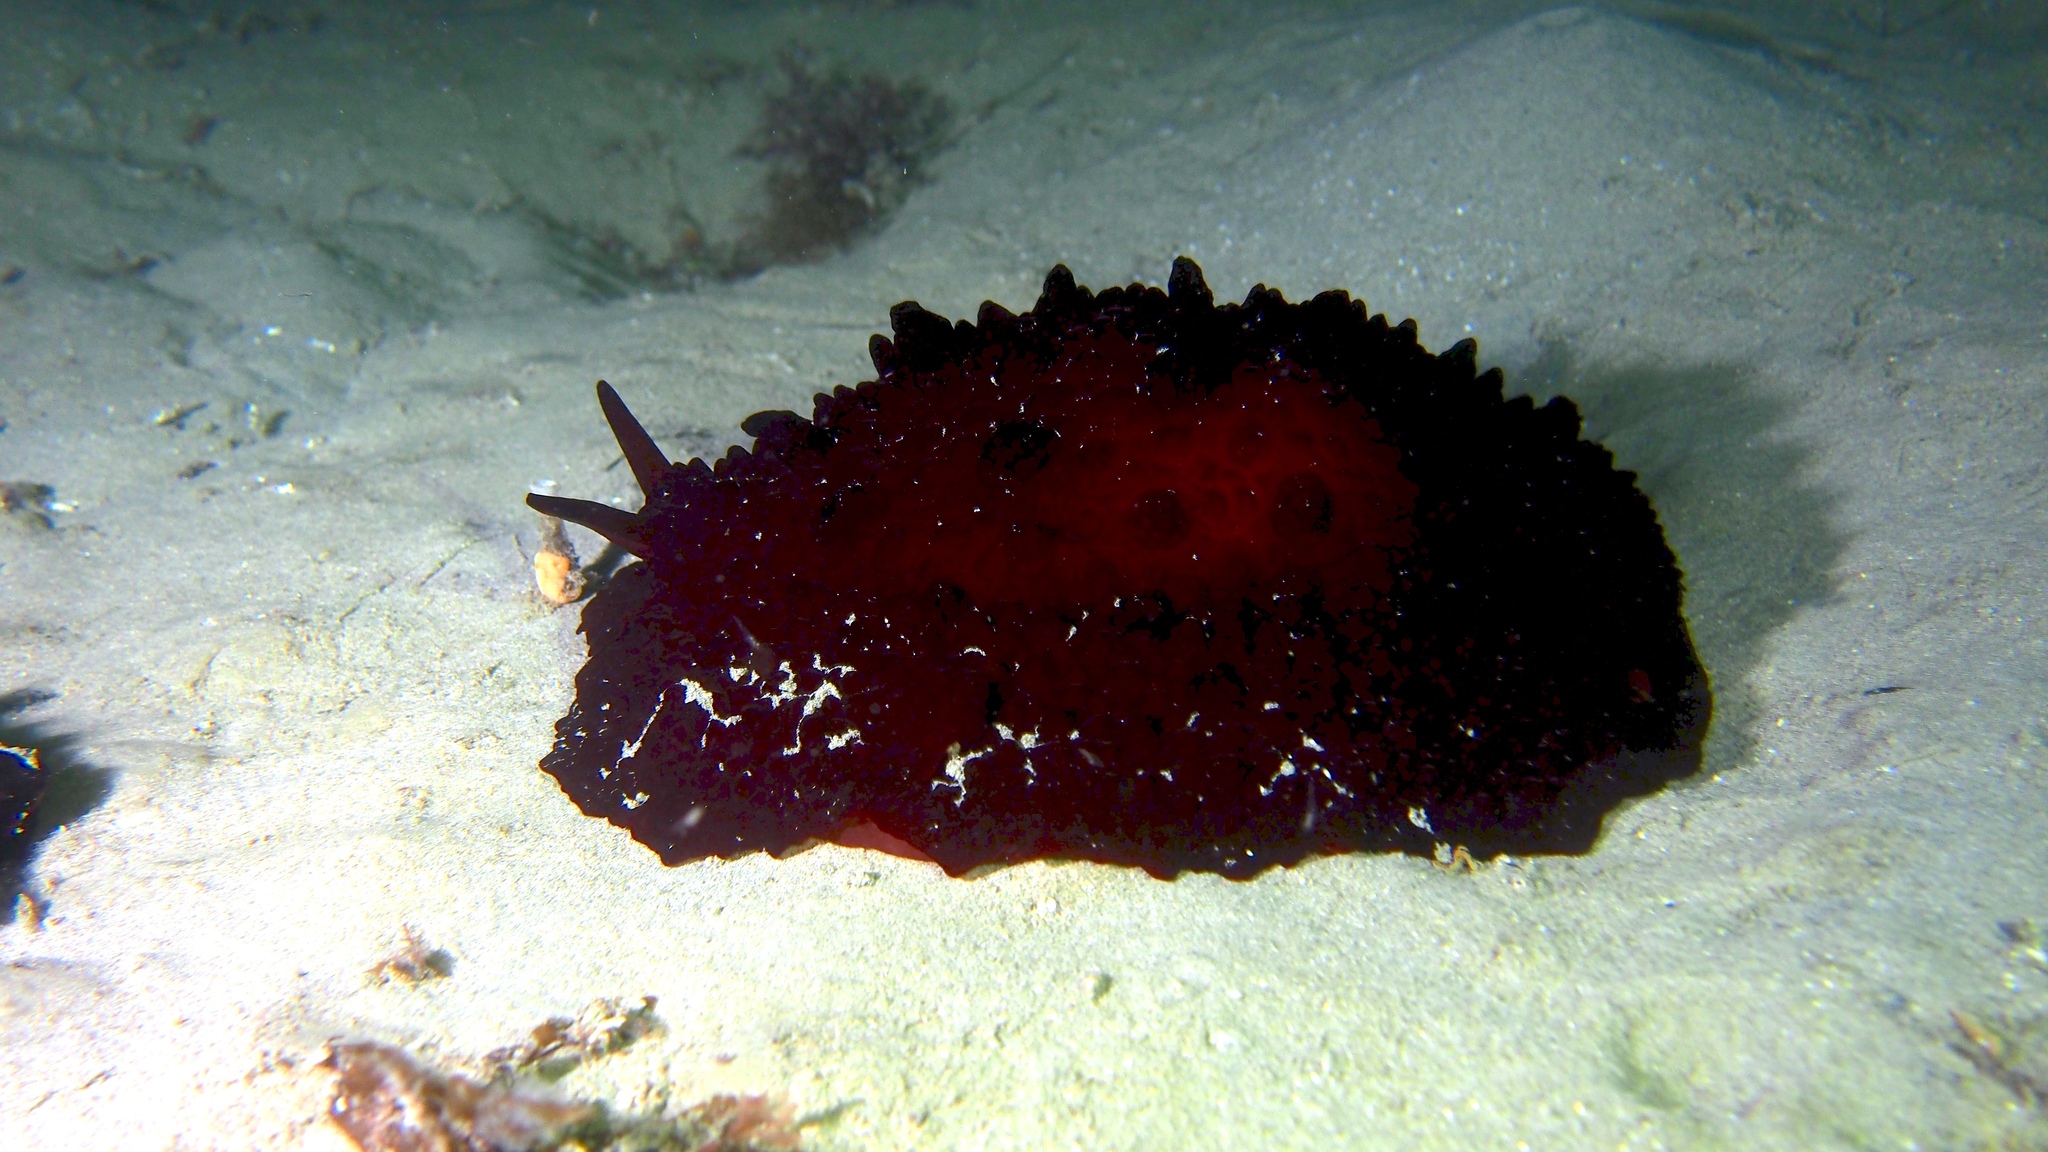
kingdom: Animalia
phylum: Mollusca
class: Gastropoda
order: Pleurobranchida
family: Pleurobranchidae
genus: Pleurobranchus
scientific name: Pleurobranchus hilli
